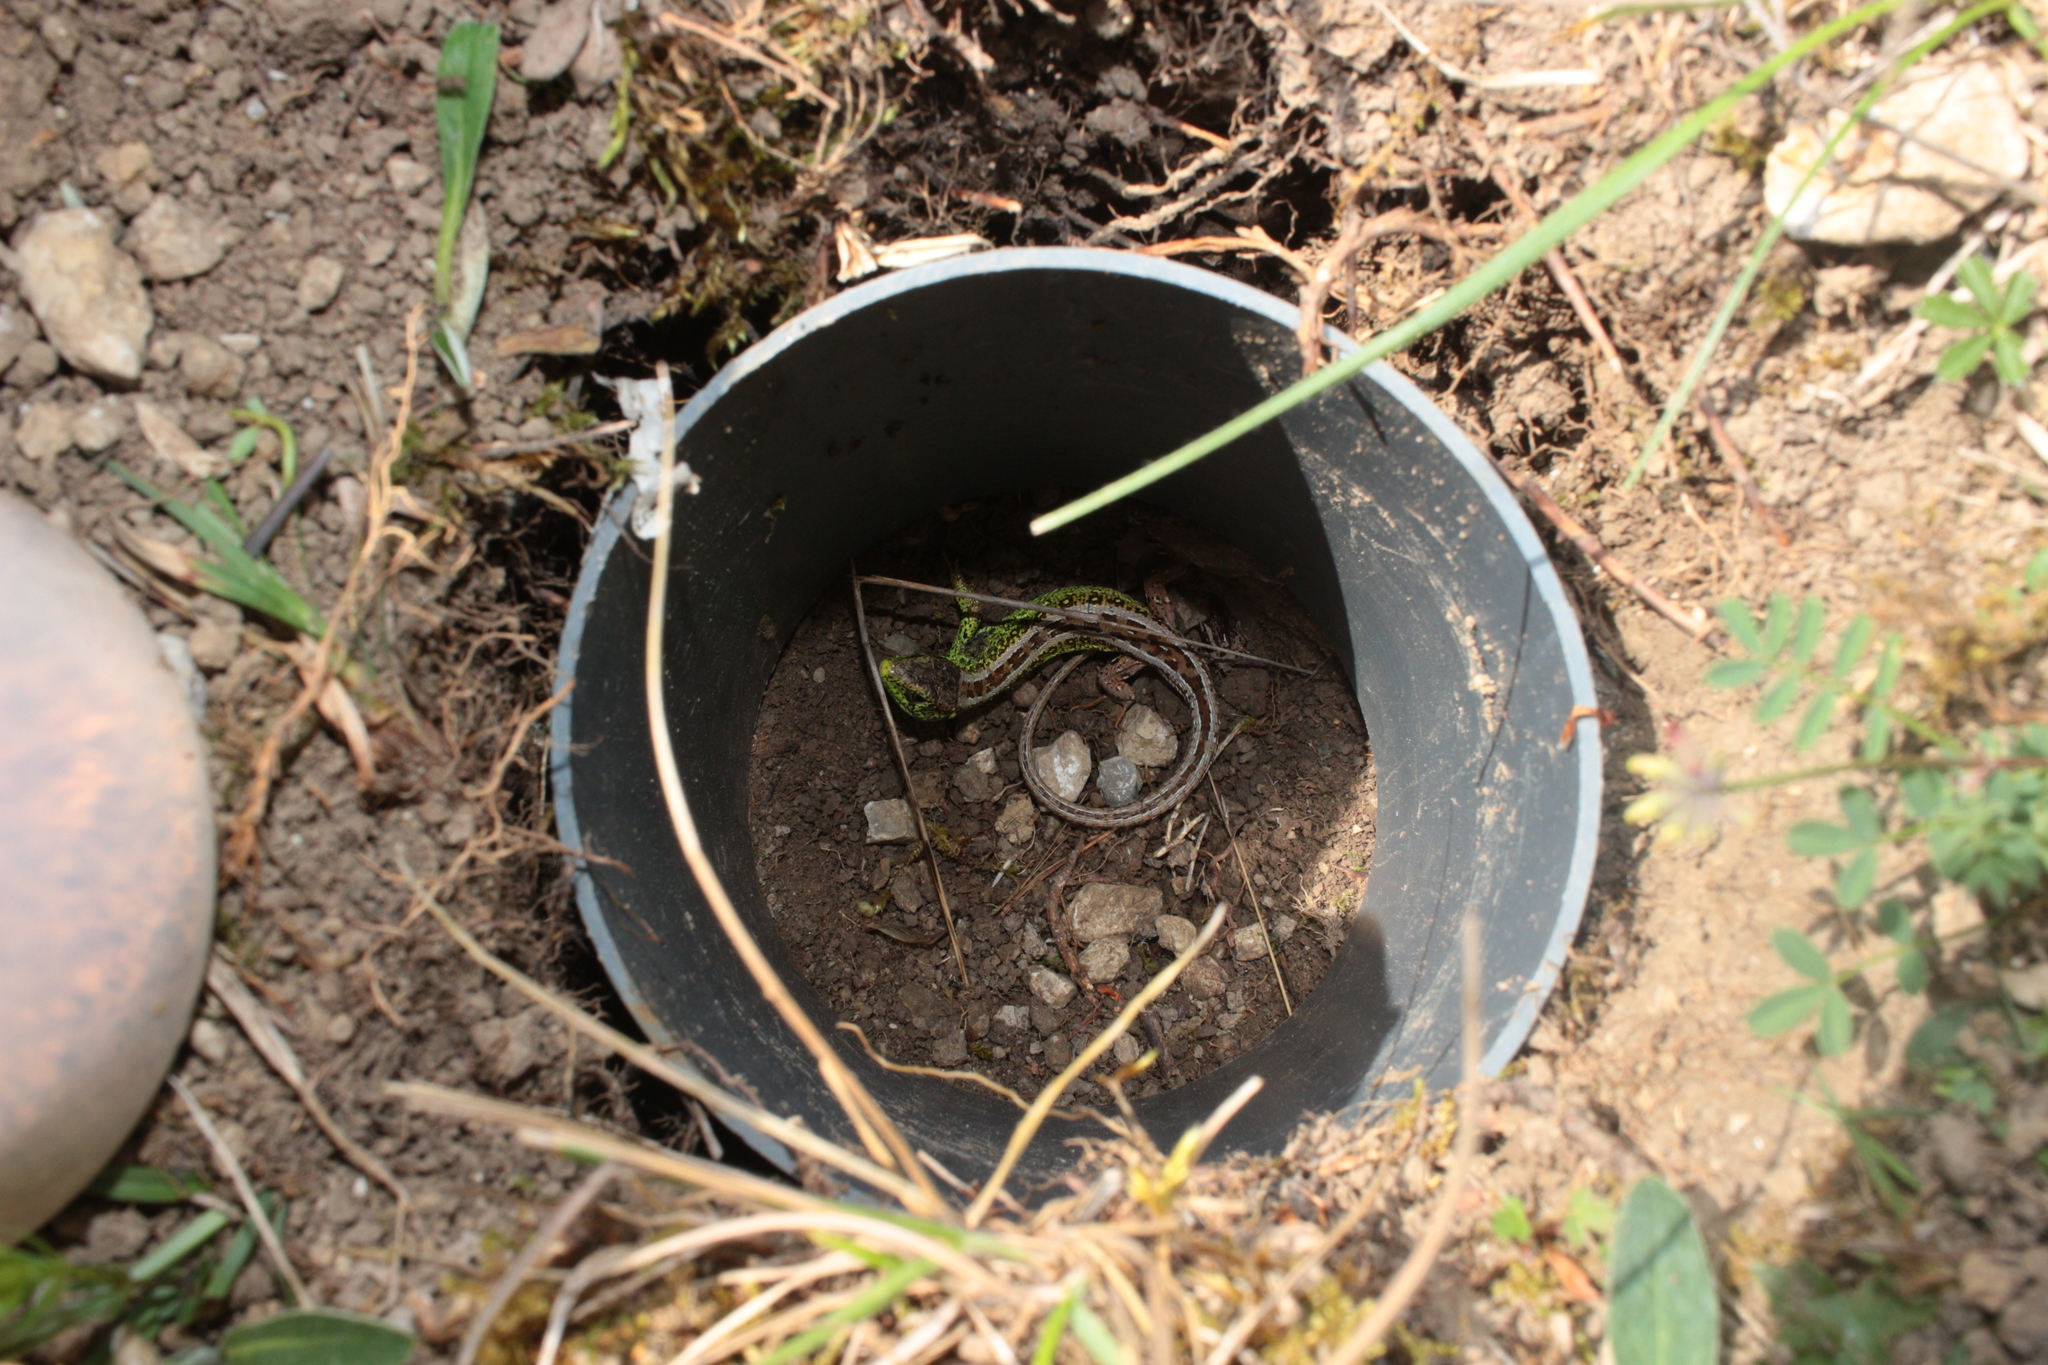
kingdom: Animalia
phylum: Chordata
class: Squamata
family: Lacertidae
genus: Lacerta
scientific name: Lacerta agilis
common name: Sand lizard
